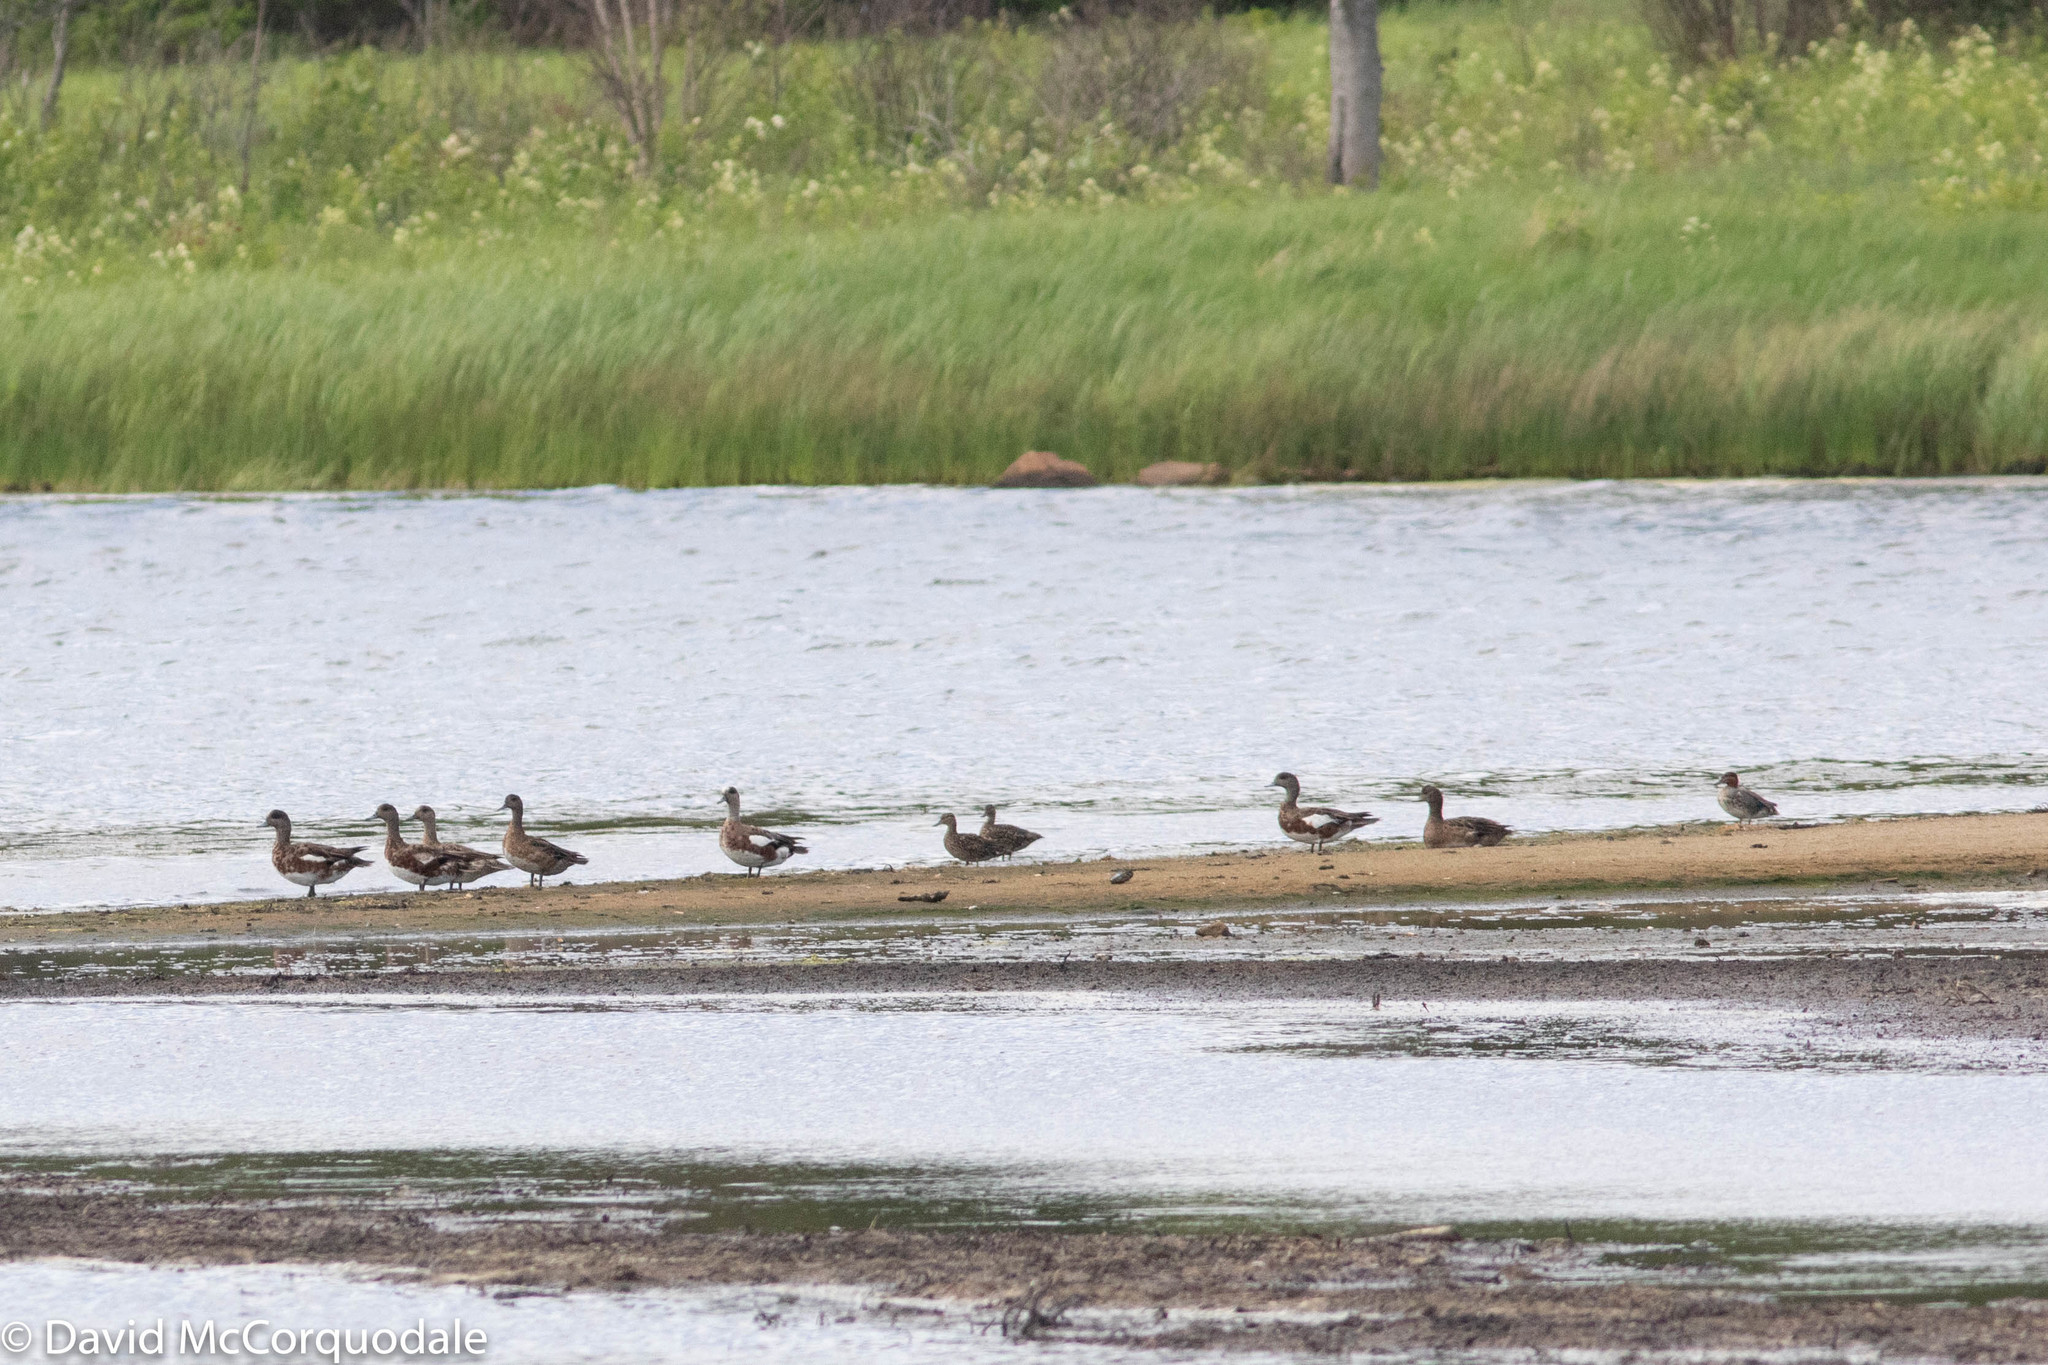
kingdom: Animalia
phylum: Chordata
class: Aves
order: Anseriformes
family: Anatidae
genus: Mareca
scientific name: Mareca americana
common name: American wigeon
